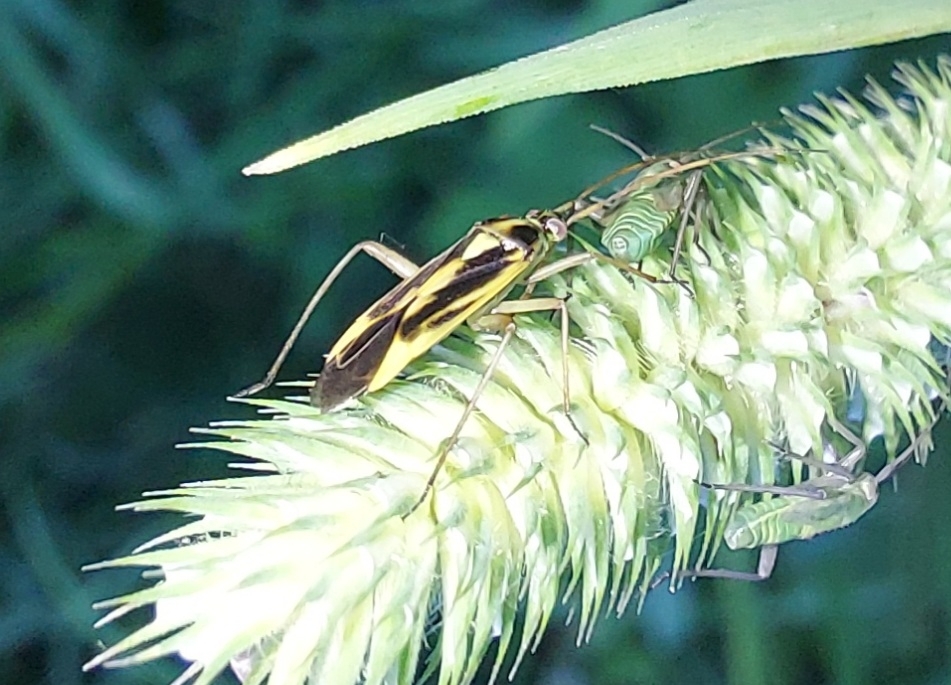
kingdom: Animalia
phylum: Arthropoda
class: Insecta
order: Hemiptera
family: Miridae
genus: Stenotus
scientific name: Stenotus binotatus
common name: Plant bug
